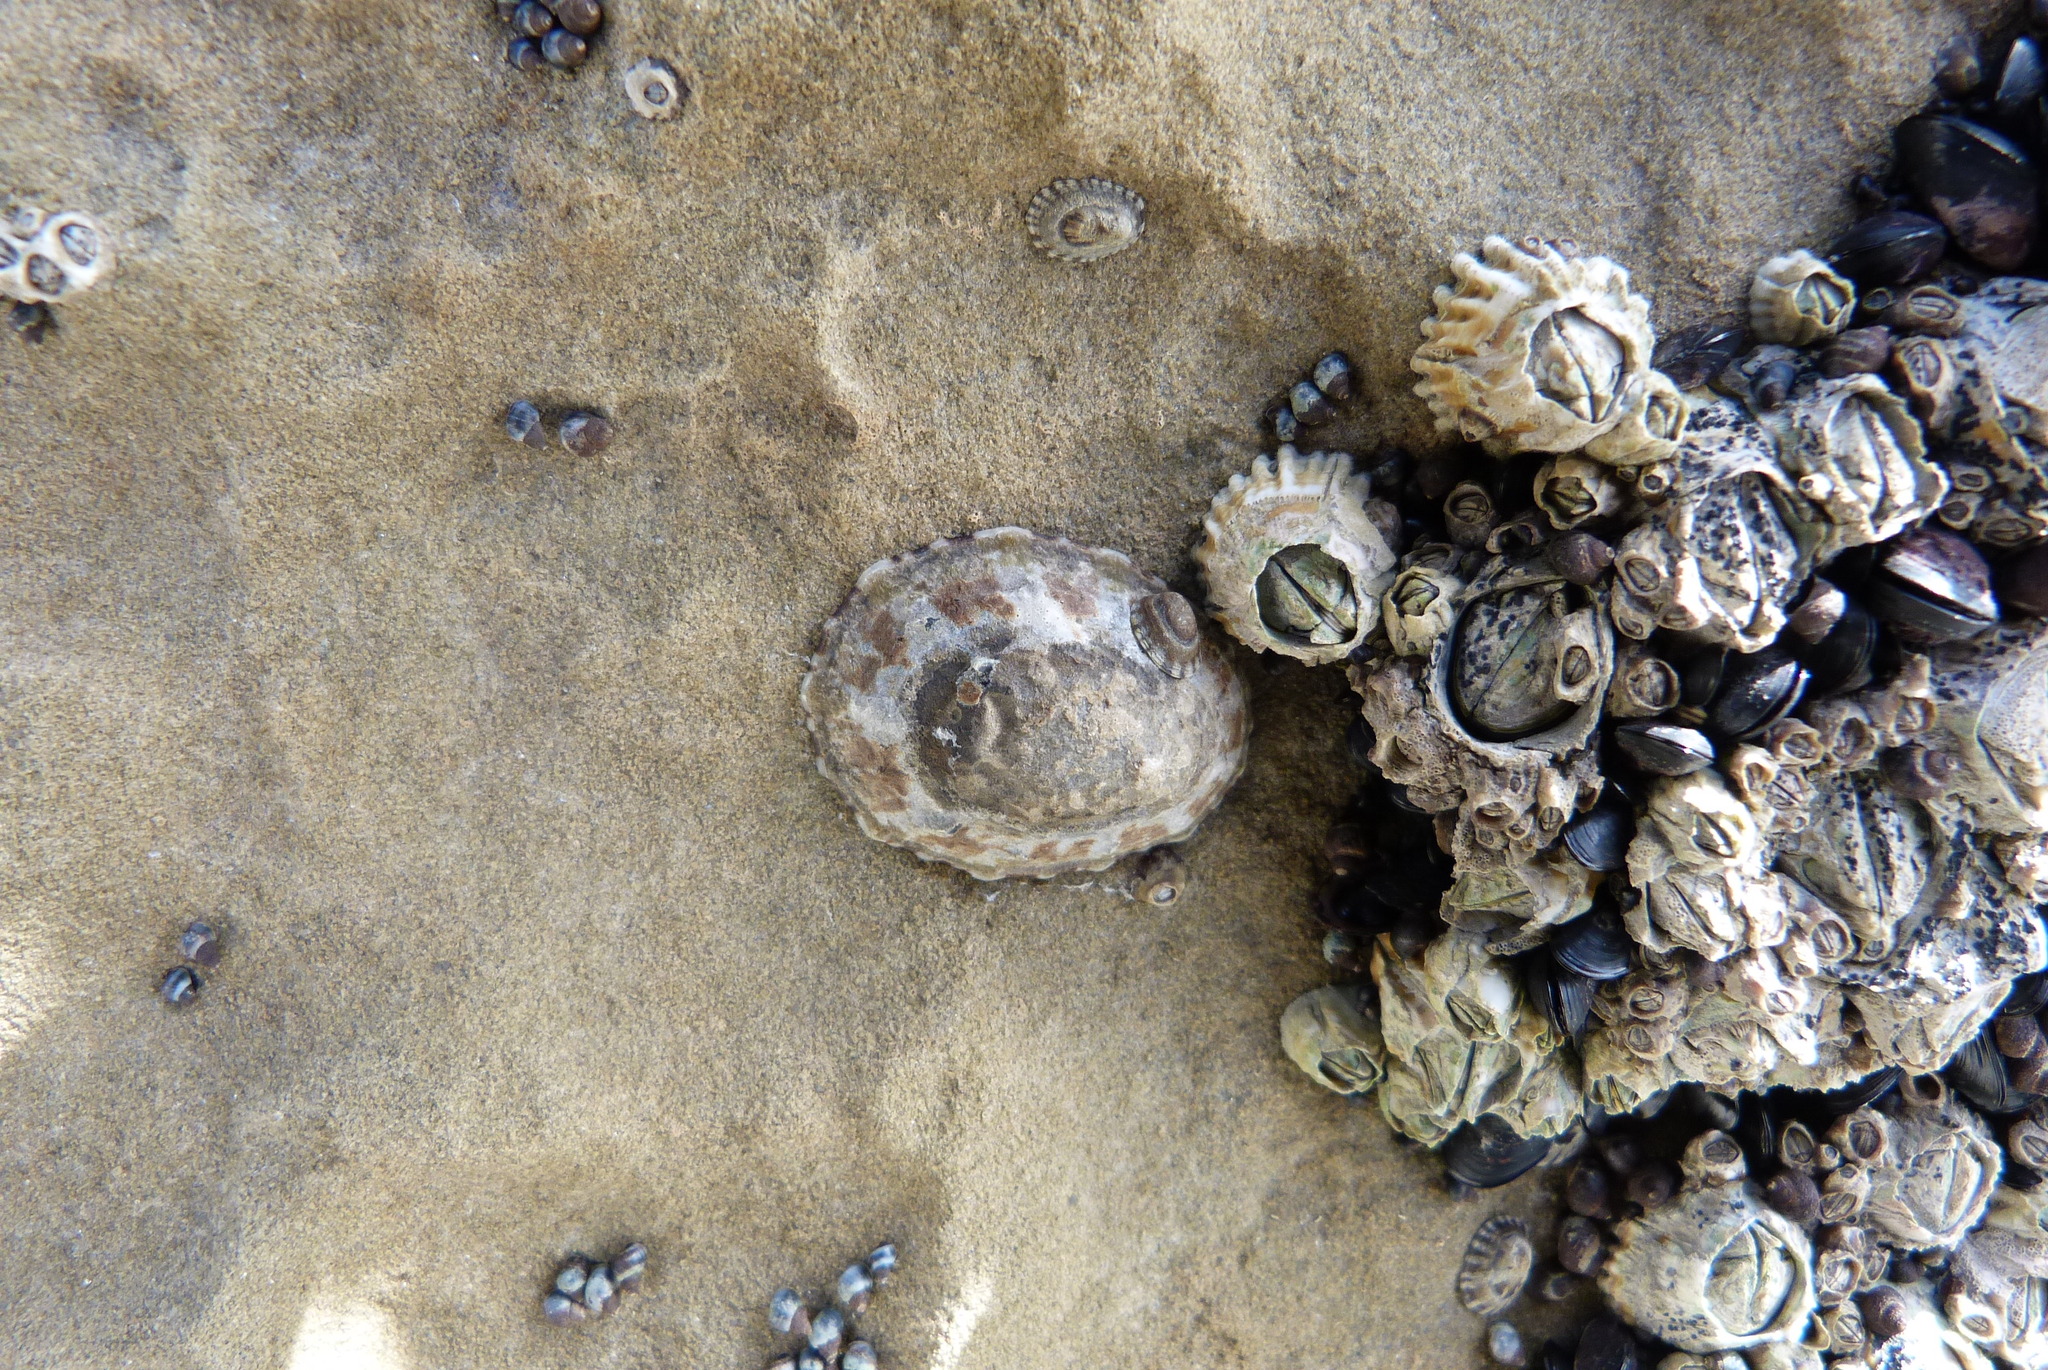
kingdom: Animalia
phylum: Arthropoda
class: Maxillopoda
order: Sessilia
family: Tetraclitidae
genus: Epopella
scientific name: Epopella plicata
